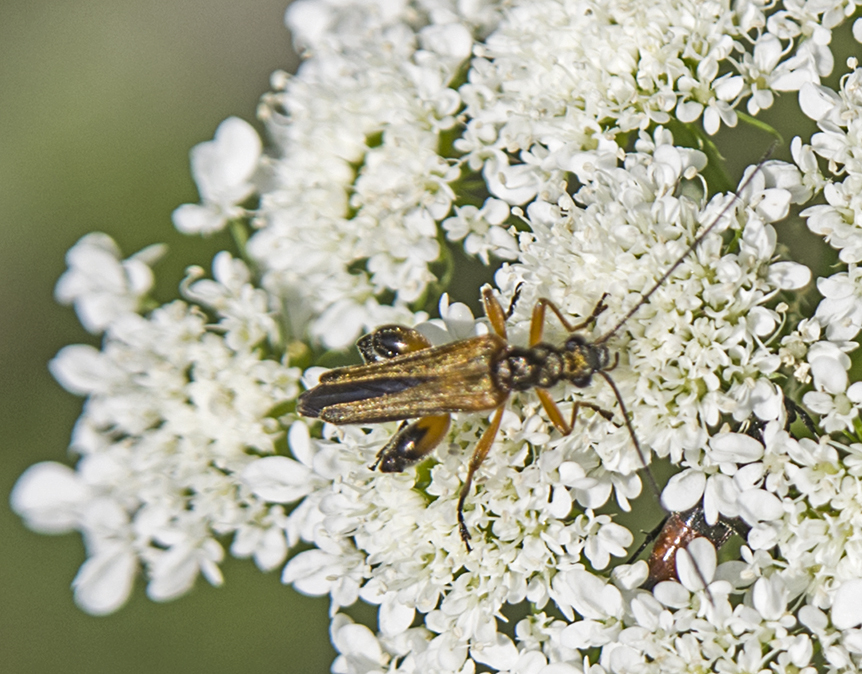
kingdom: Animalia
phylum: Arthropoda
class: Insecta
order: Coleoptera
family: Oedemeridae
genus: Oedemera
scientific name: Oedemera podagrariae
